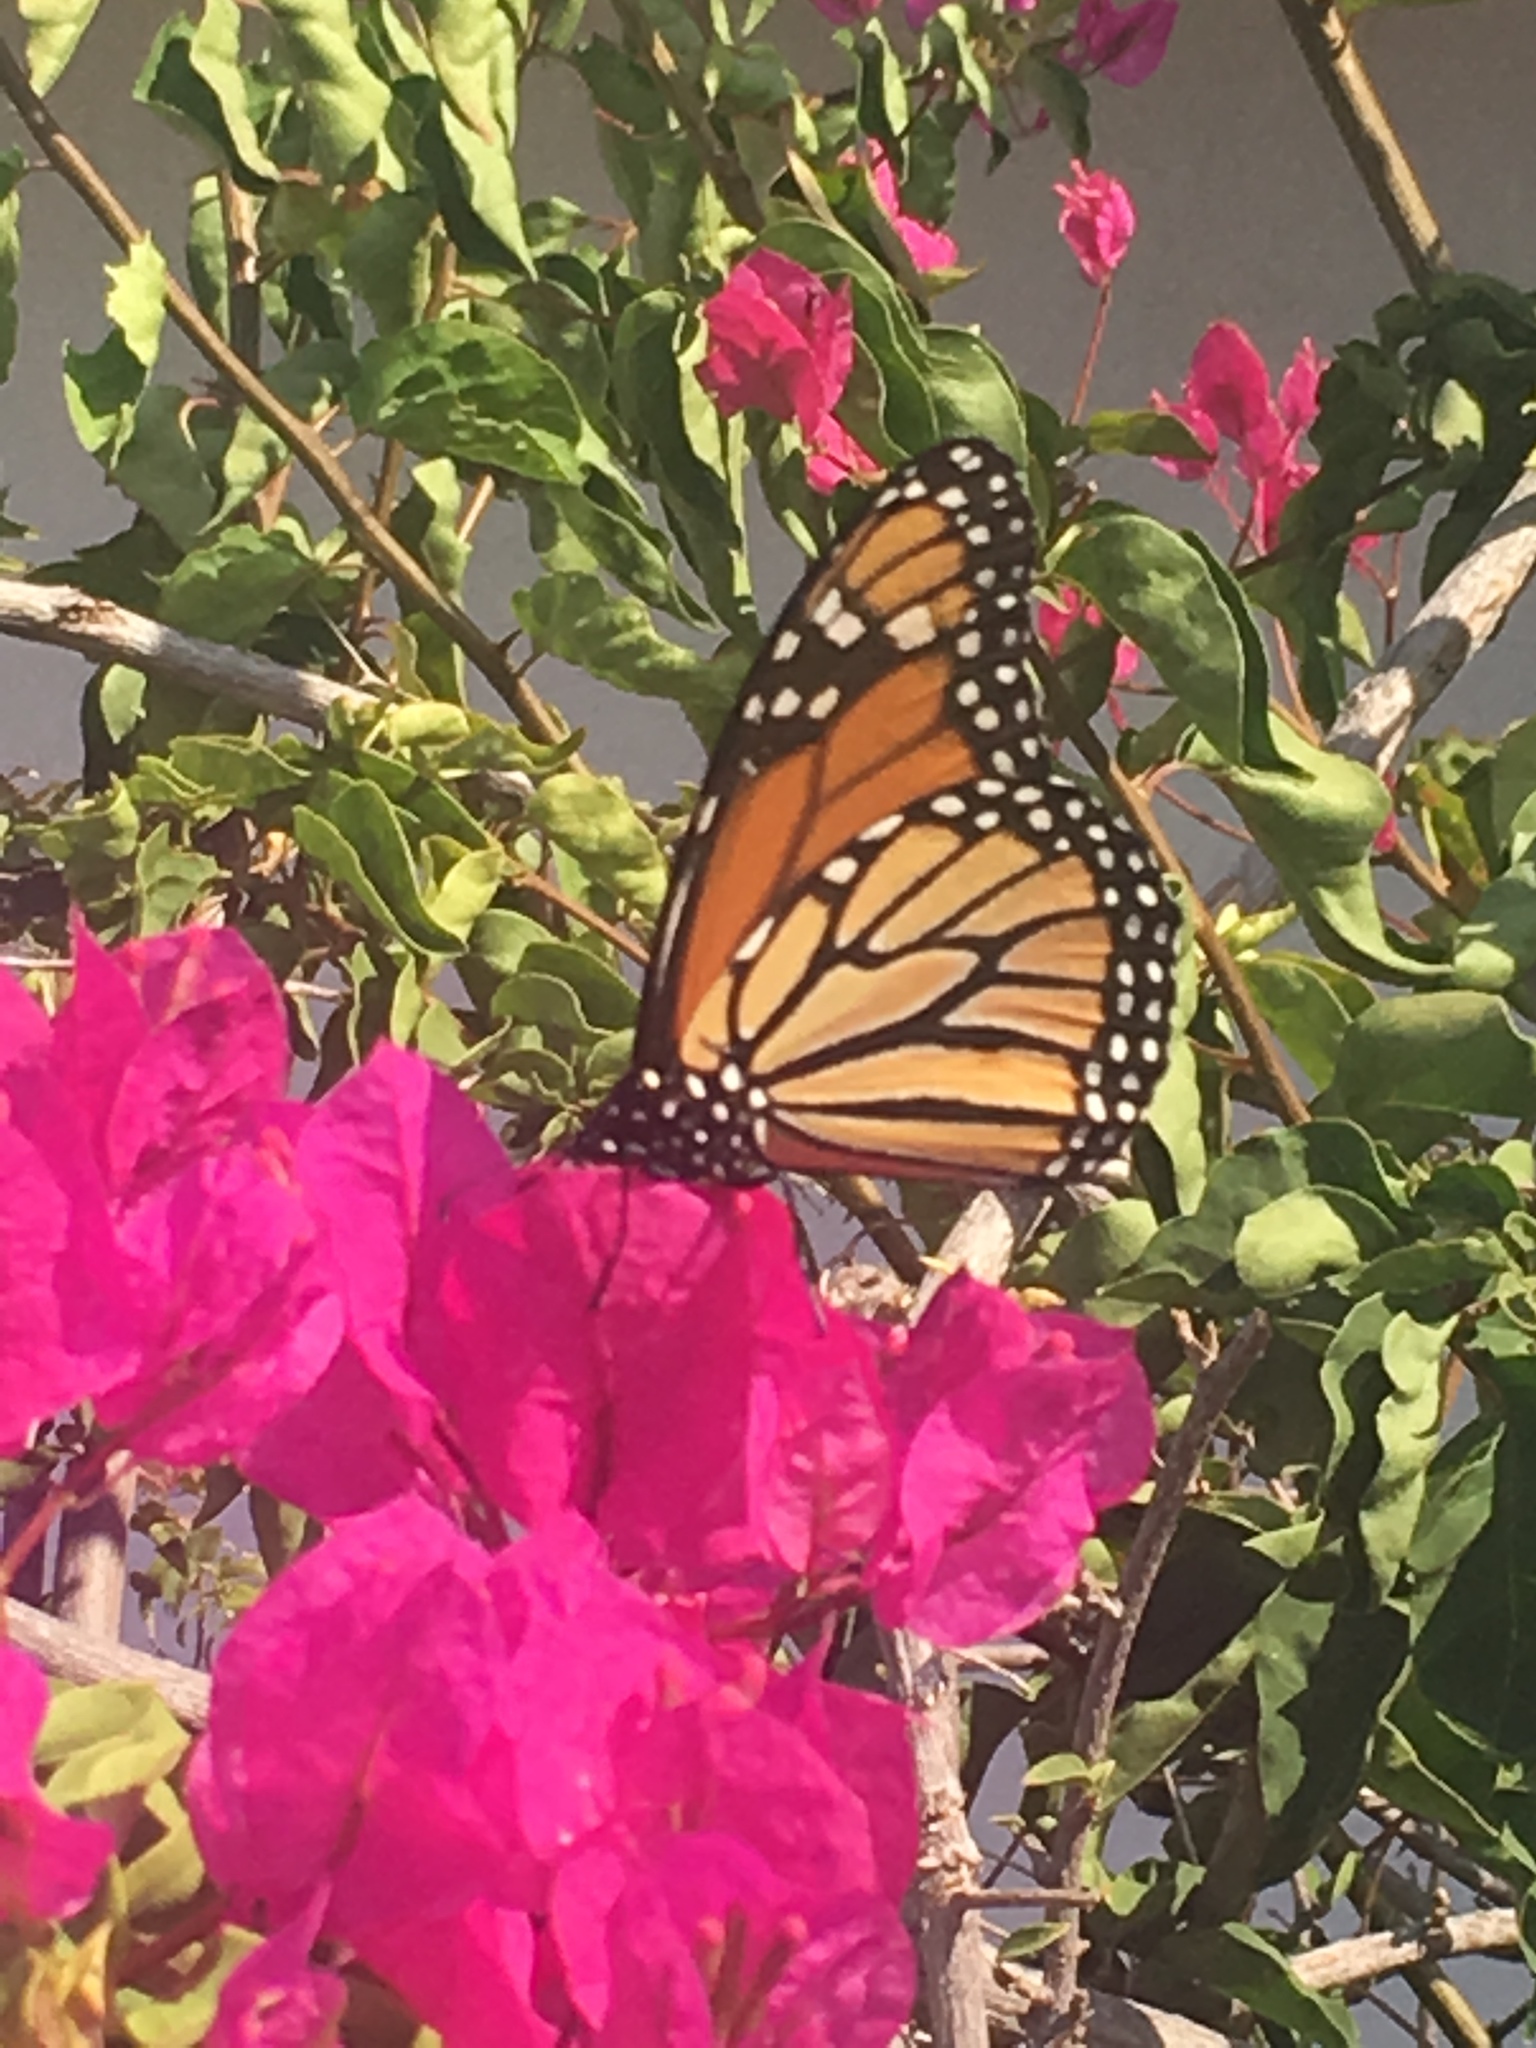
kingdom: Animalia
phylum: Arthropoda
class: Insecta
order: Lepidoptera
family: Nymphalidae
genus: Danaus
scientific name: Danaus plexippus
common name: Monarch
